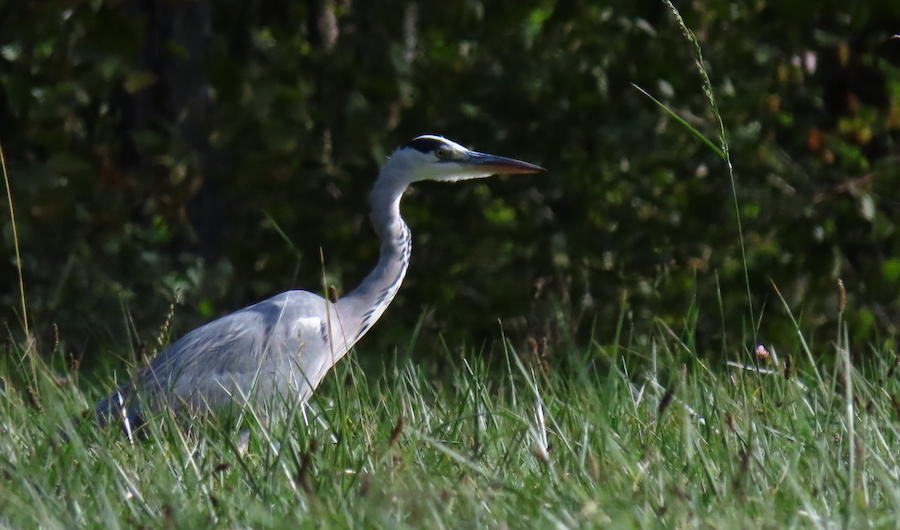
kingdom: Animalia
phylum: Chordata
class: Aves
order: Pelecaniformes
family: Ardeidae
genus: Ardea
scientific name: Ardea cinerea
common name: Grey heron
